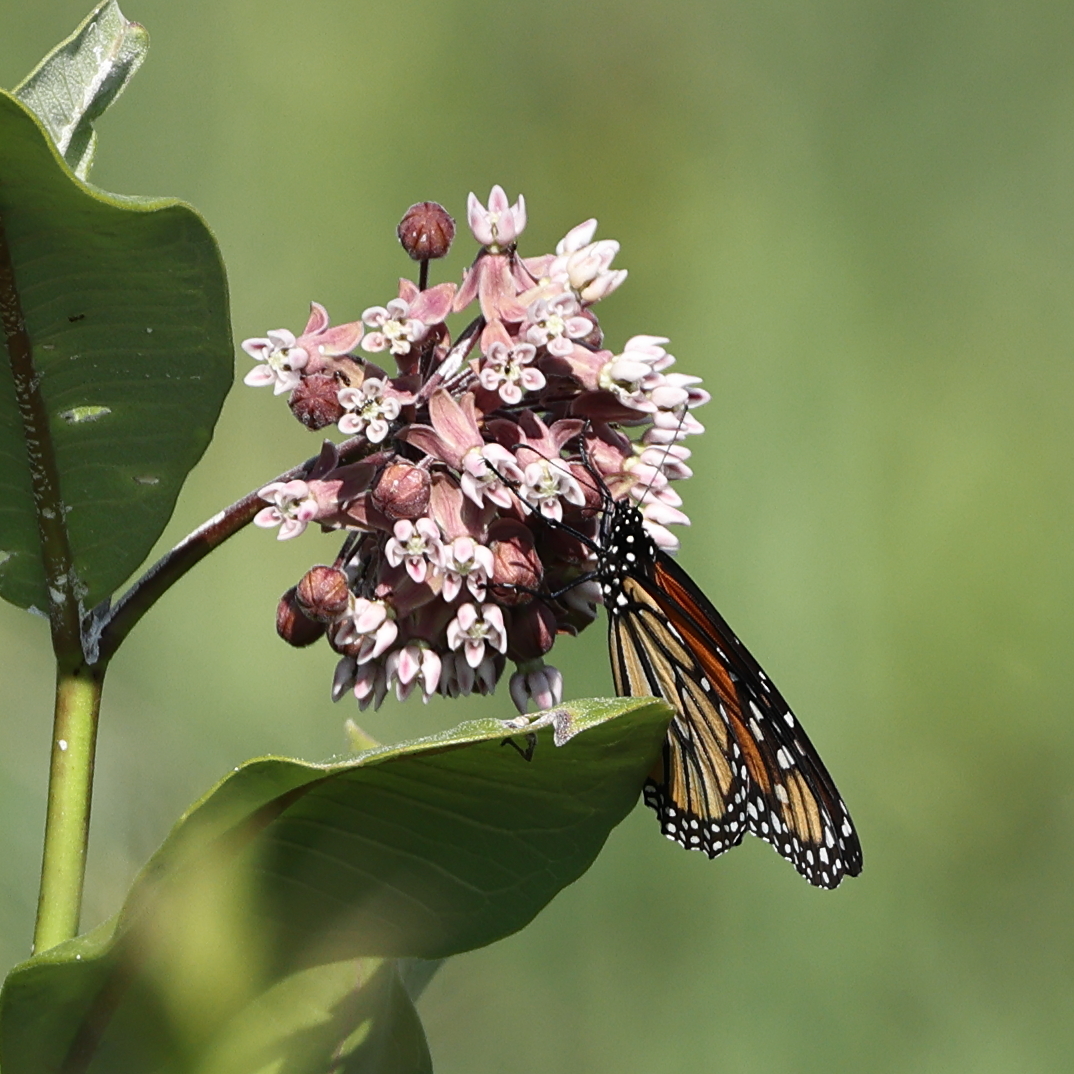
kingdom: Animalia
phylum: Arthropoda
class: Insecta
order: Lepidoptera
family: Nymphalidae
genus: Danaus
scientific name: Danaus plexippus
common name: Monarch
